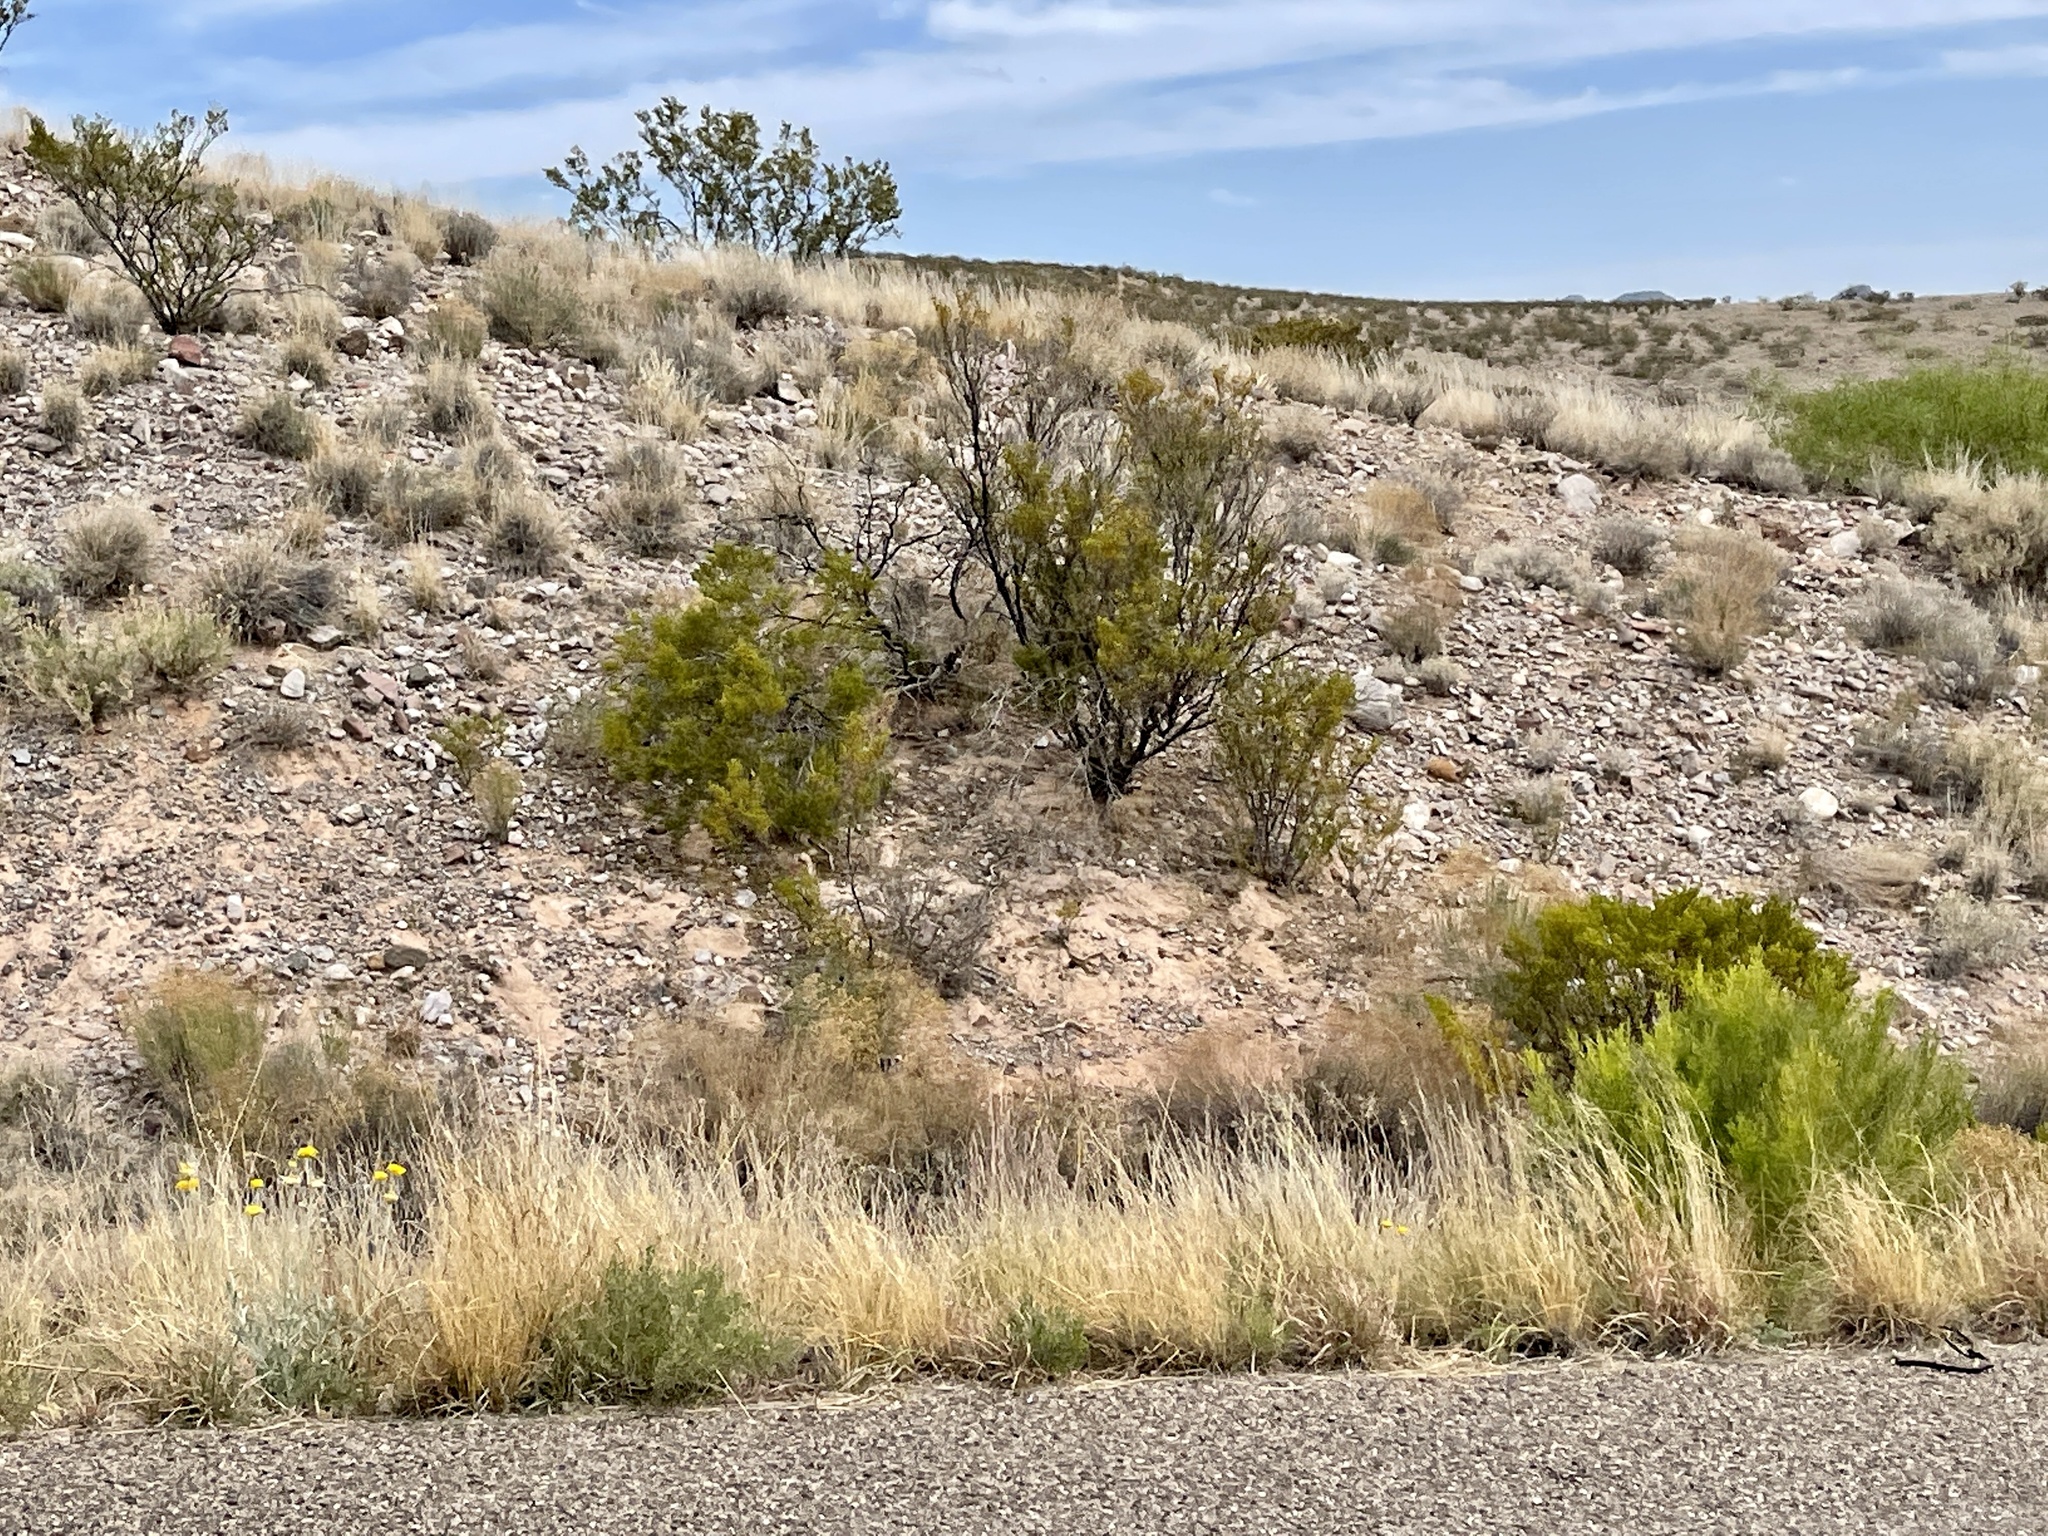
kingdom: Plantae
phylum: Tracheophyta
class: Magnoliopsida
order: Zygophyllales
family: Zygophyllaceae
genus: Larrea
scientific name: Larrea tridentata
